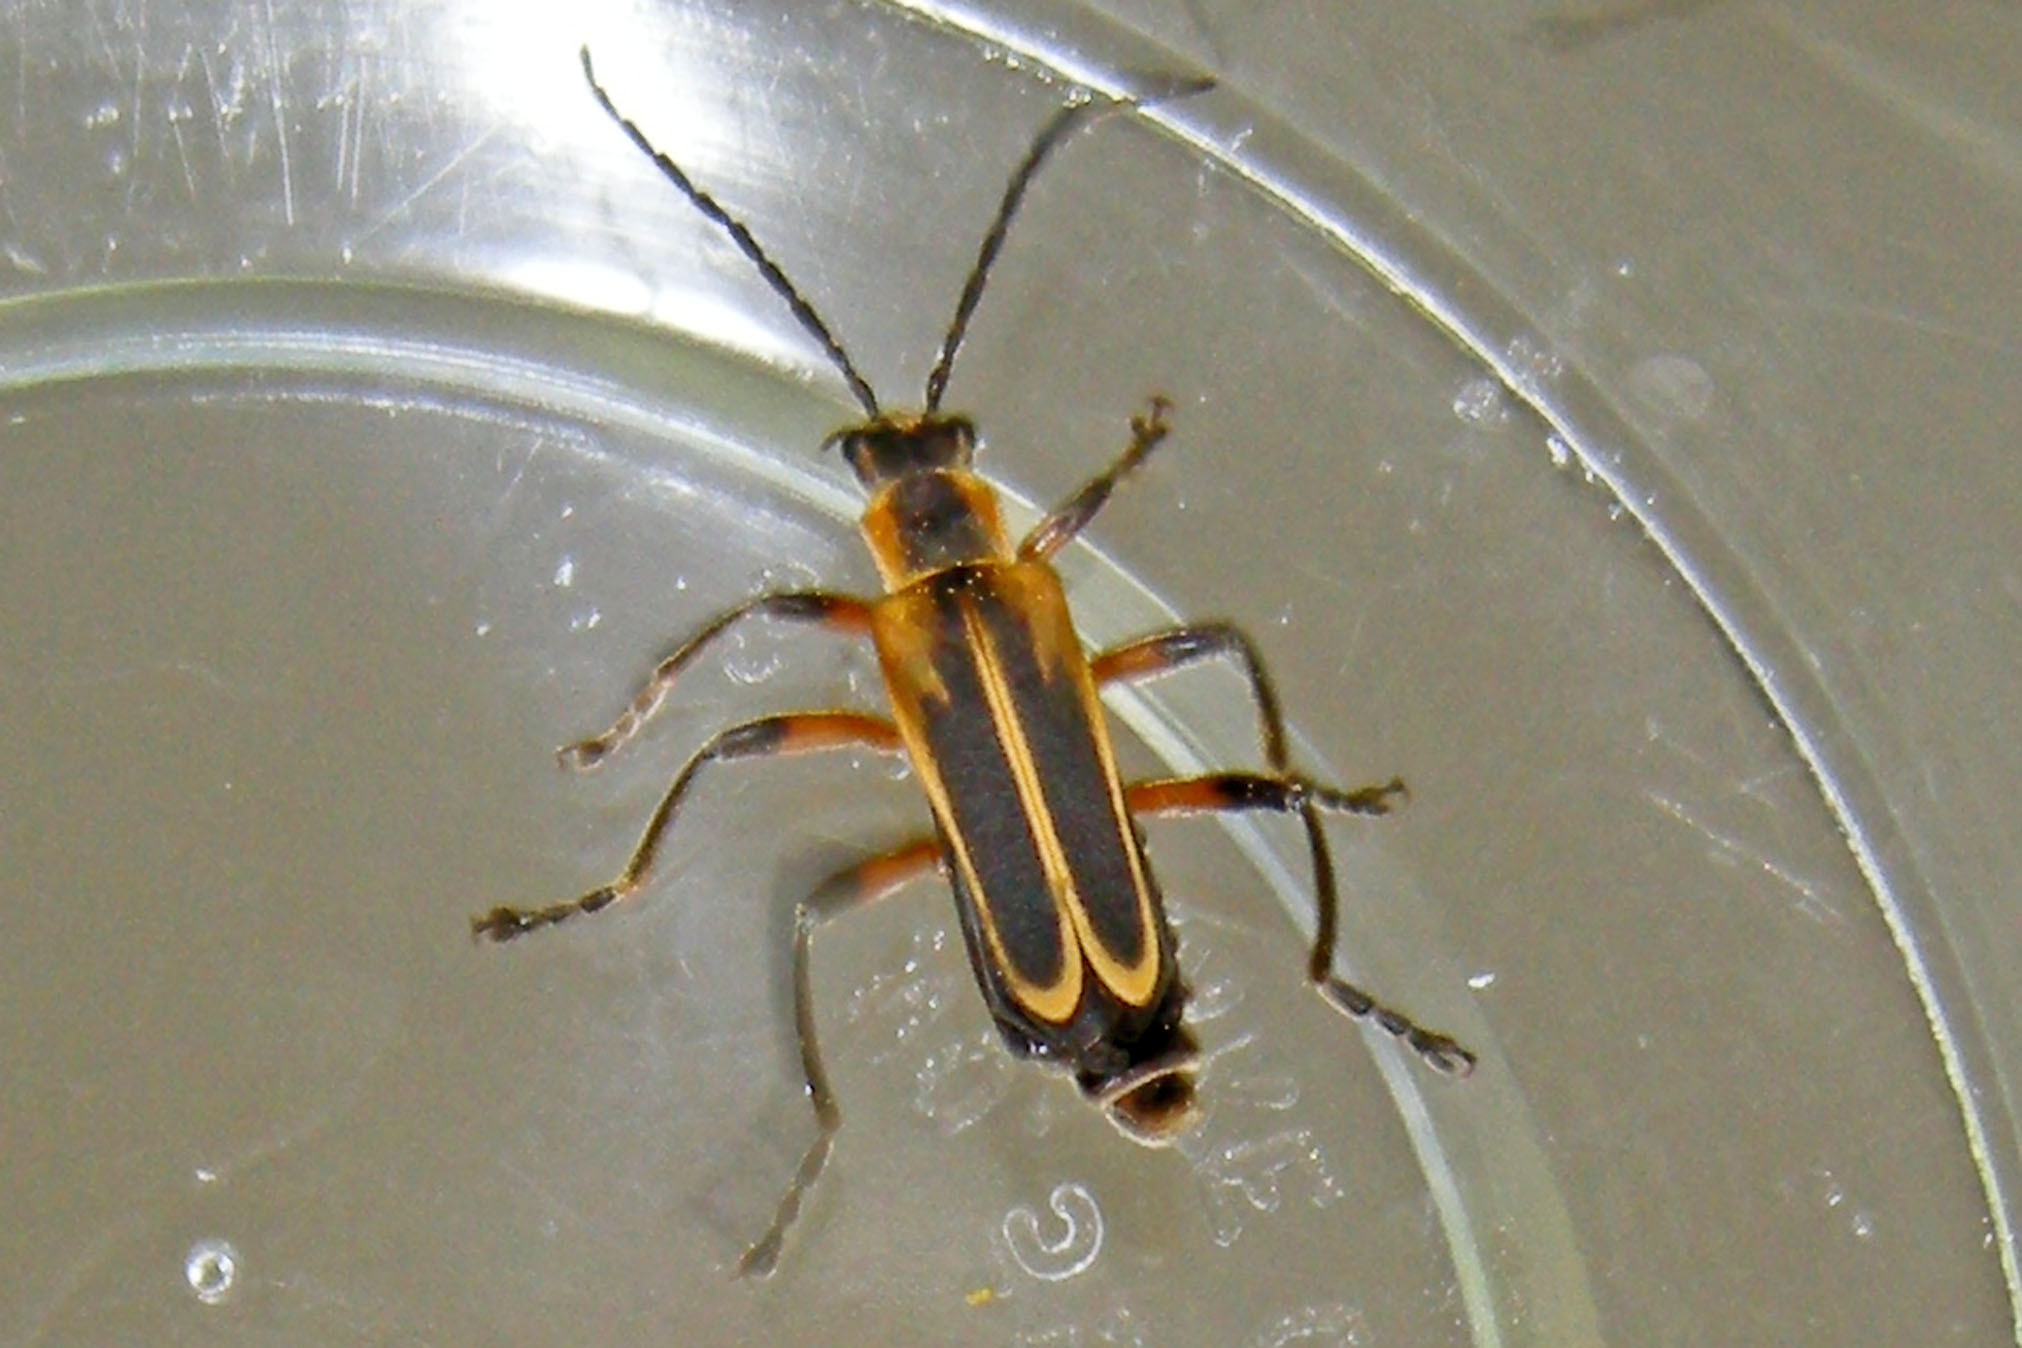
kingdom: Animalia
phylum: Arthropoda
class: Insecta
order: Coleoptera
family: Cantharidae
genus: Chauliognathus
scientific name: Chauliognathus marginatus
